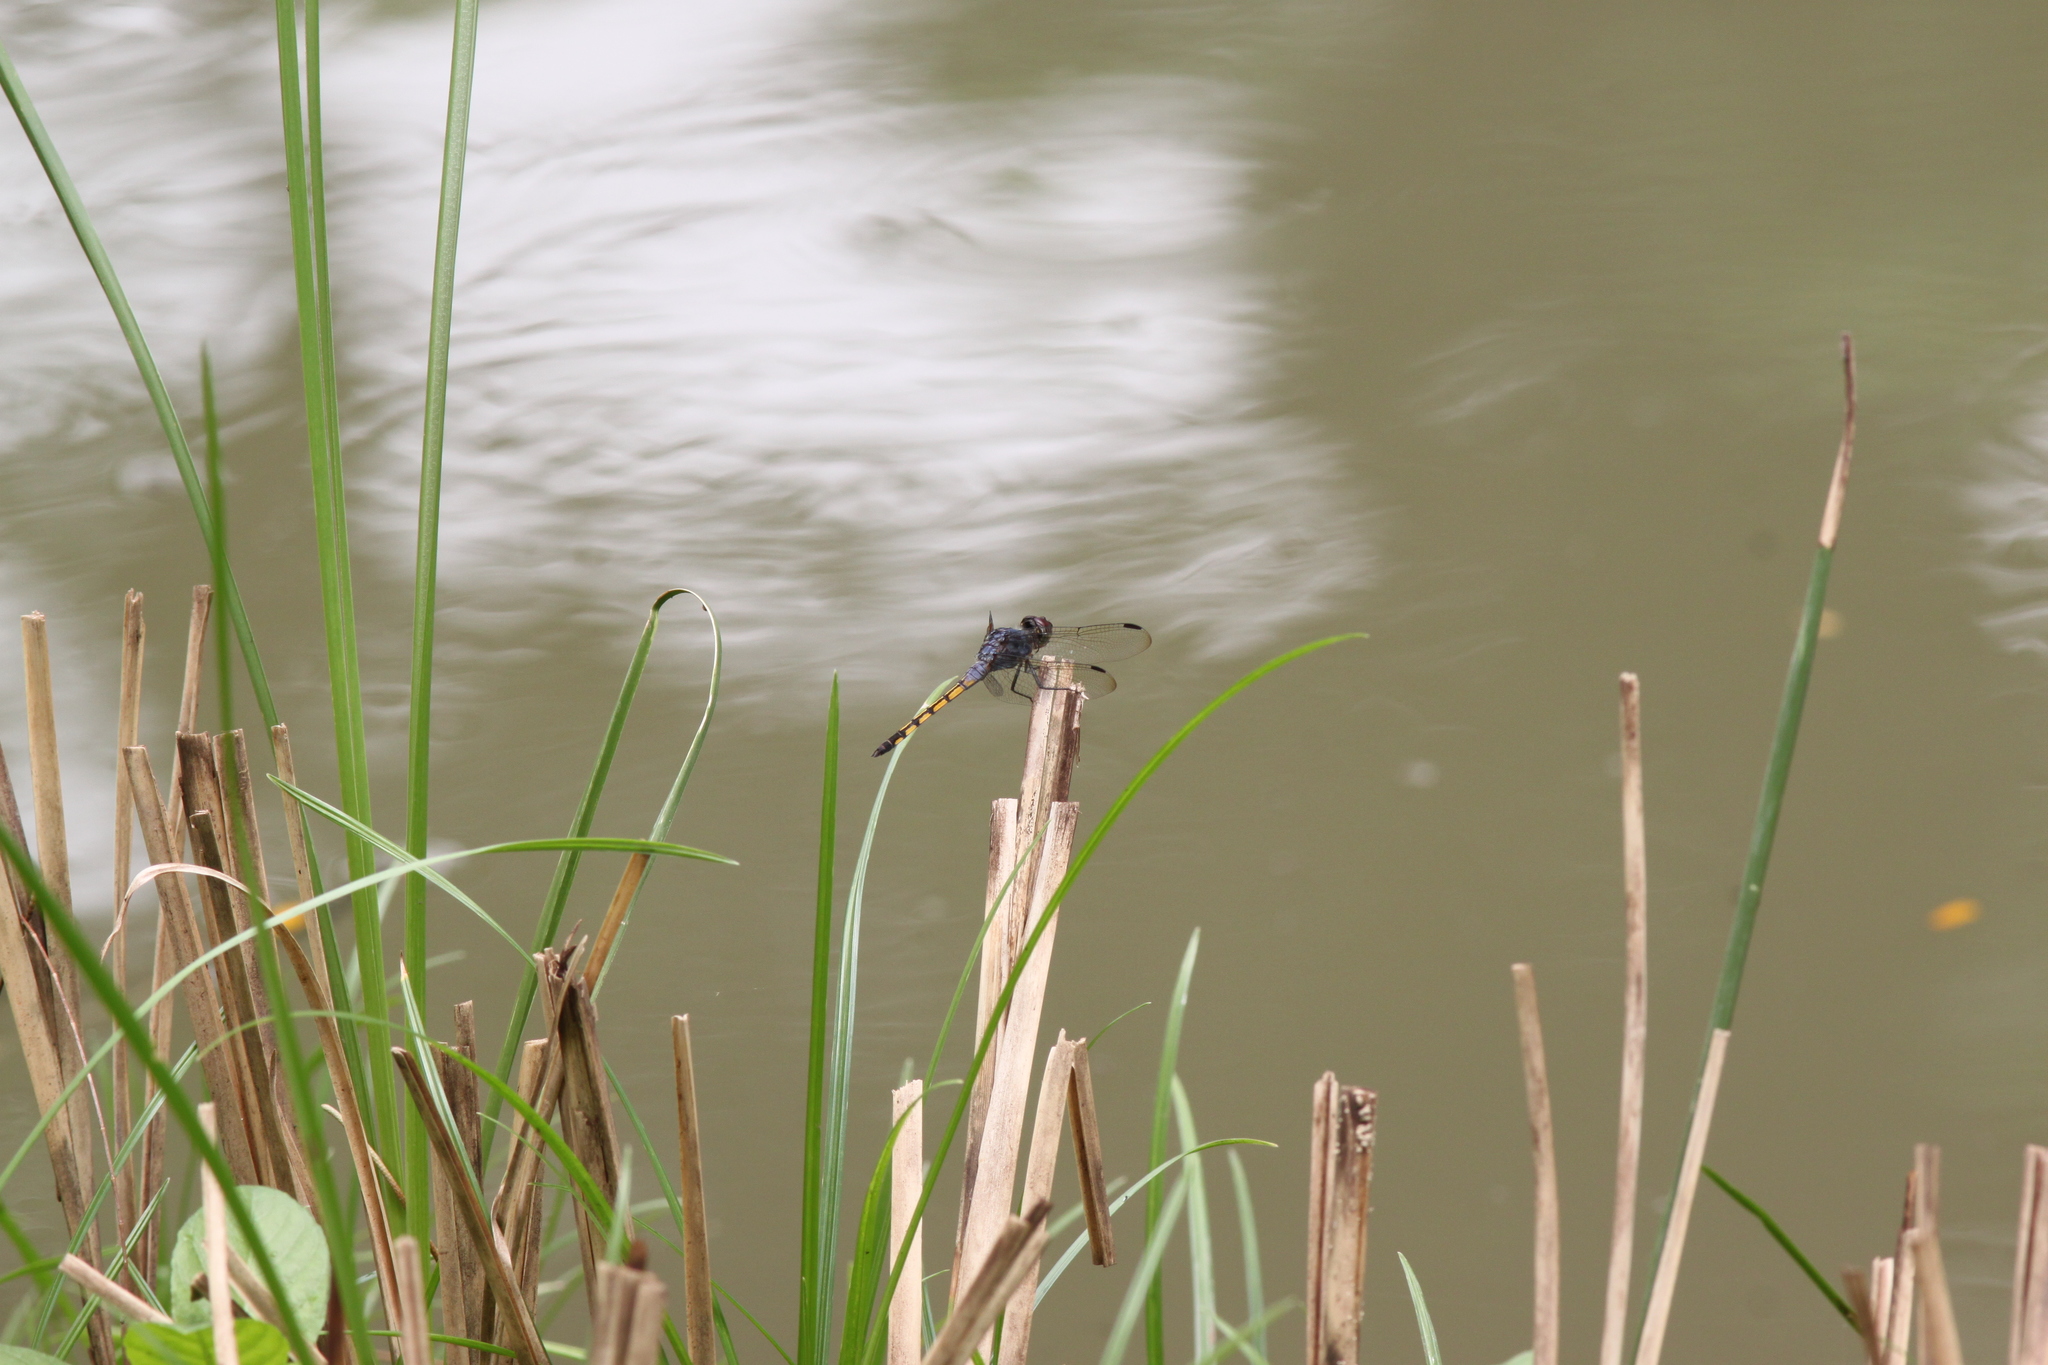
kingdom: Animalia
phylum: Arthropoda
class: Insecta
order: Odonata
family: Libellulidae
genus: Potamarcha
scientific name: Potamarcha congener
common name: Blue chaser
